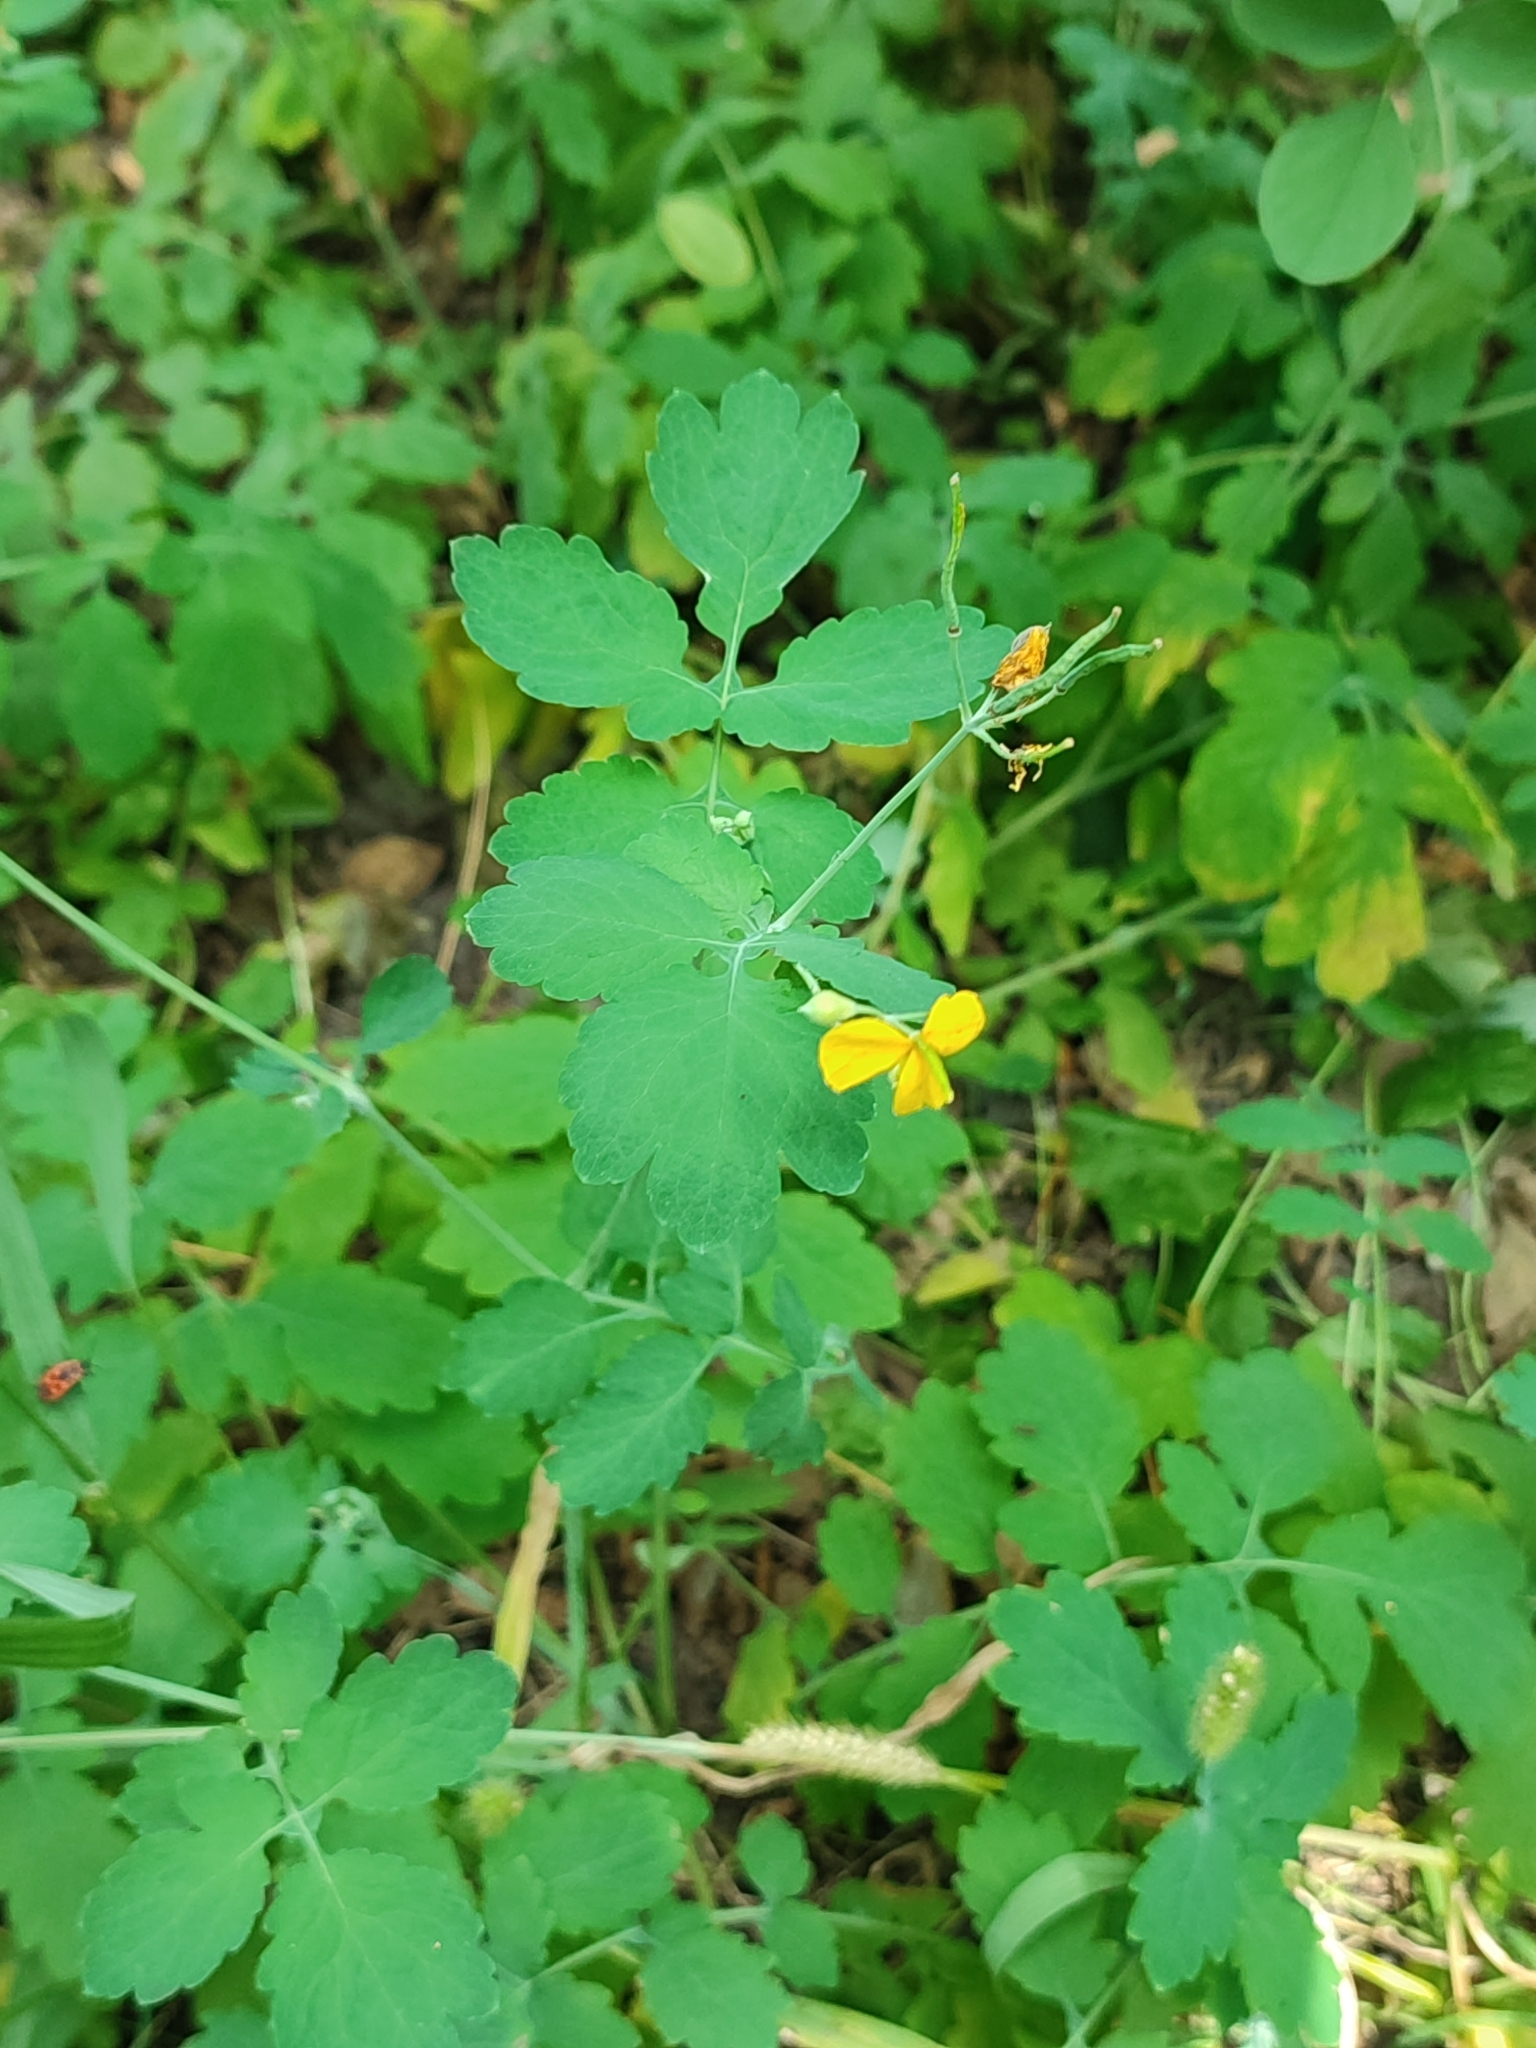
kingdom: Plantae
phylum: Tracheophyta
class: Magnoliopsida
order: Ranunculales
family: Papaveraceae
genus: Chelidonium
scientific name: Chelidonium majus
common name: Greater celandine
